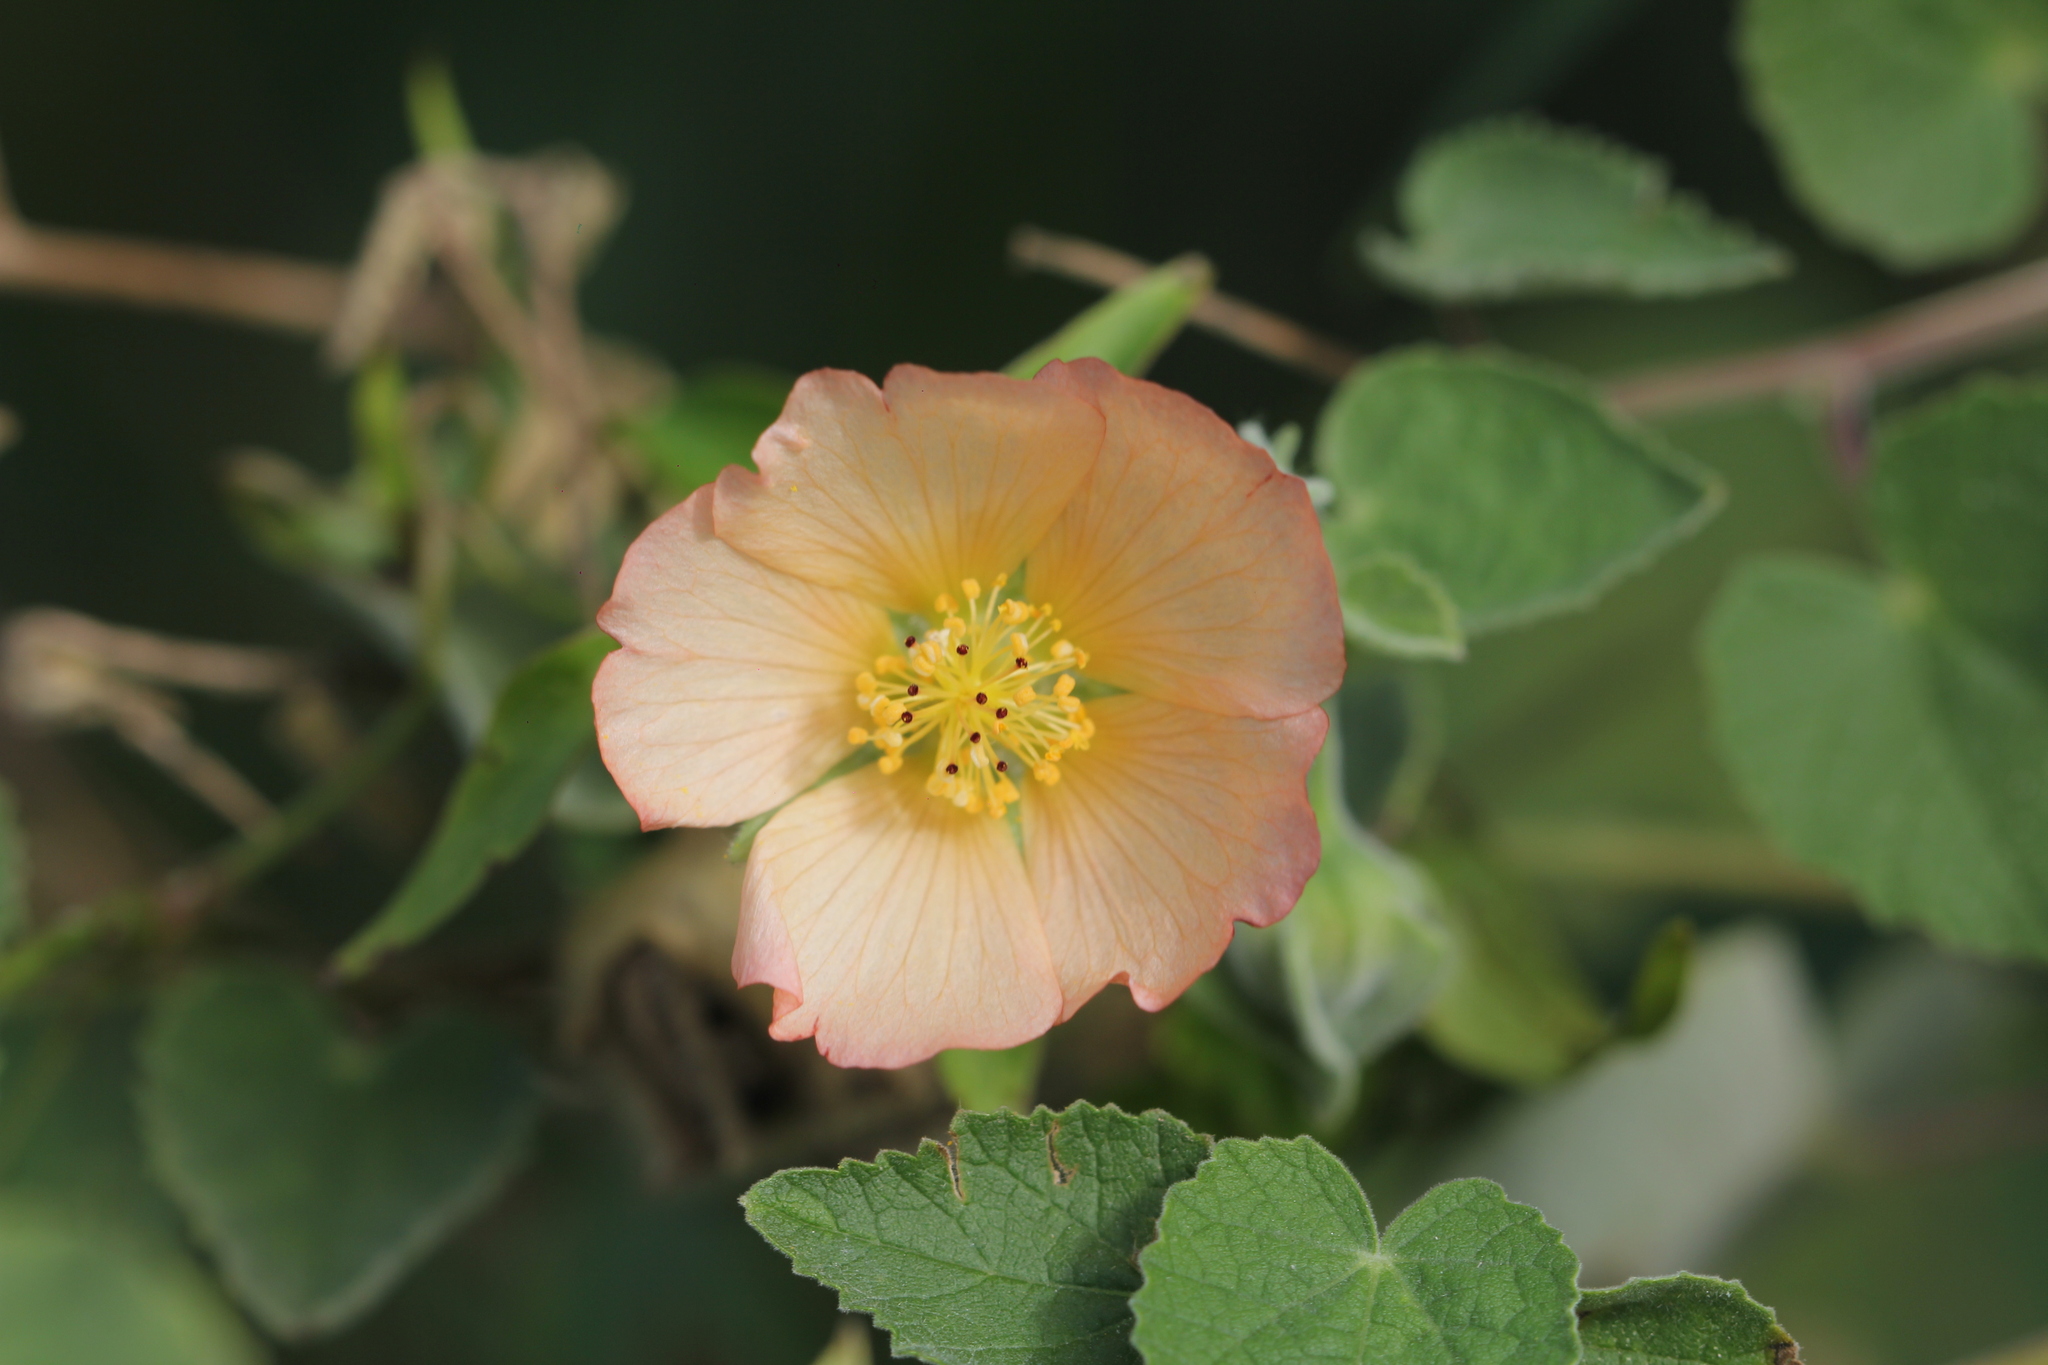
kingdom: Plantae
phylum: Tracheophyta
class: Magnoliopsida
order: Malvales
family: Malvaceae
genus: Callianthe
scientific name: Callianthe pauciflora
